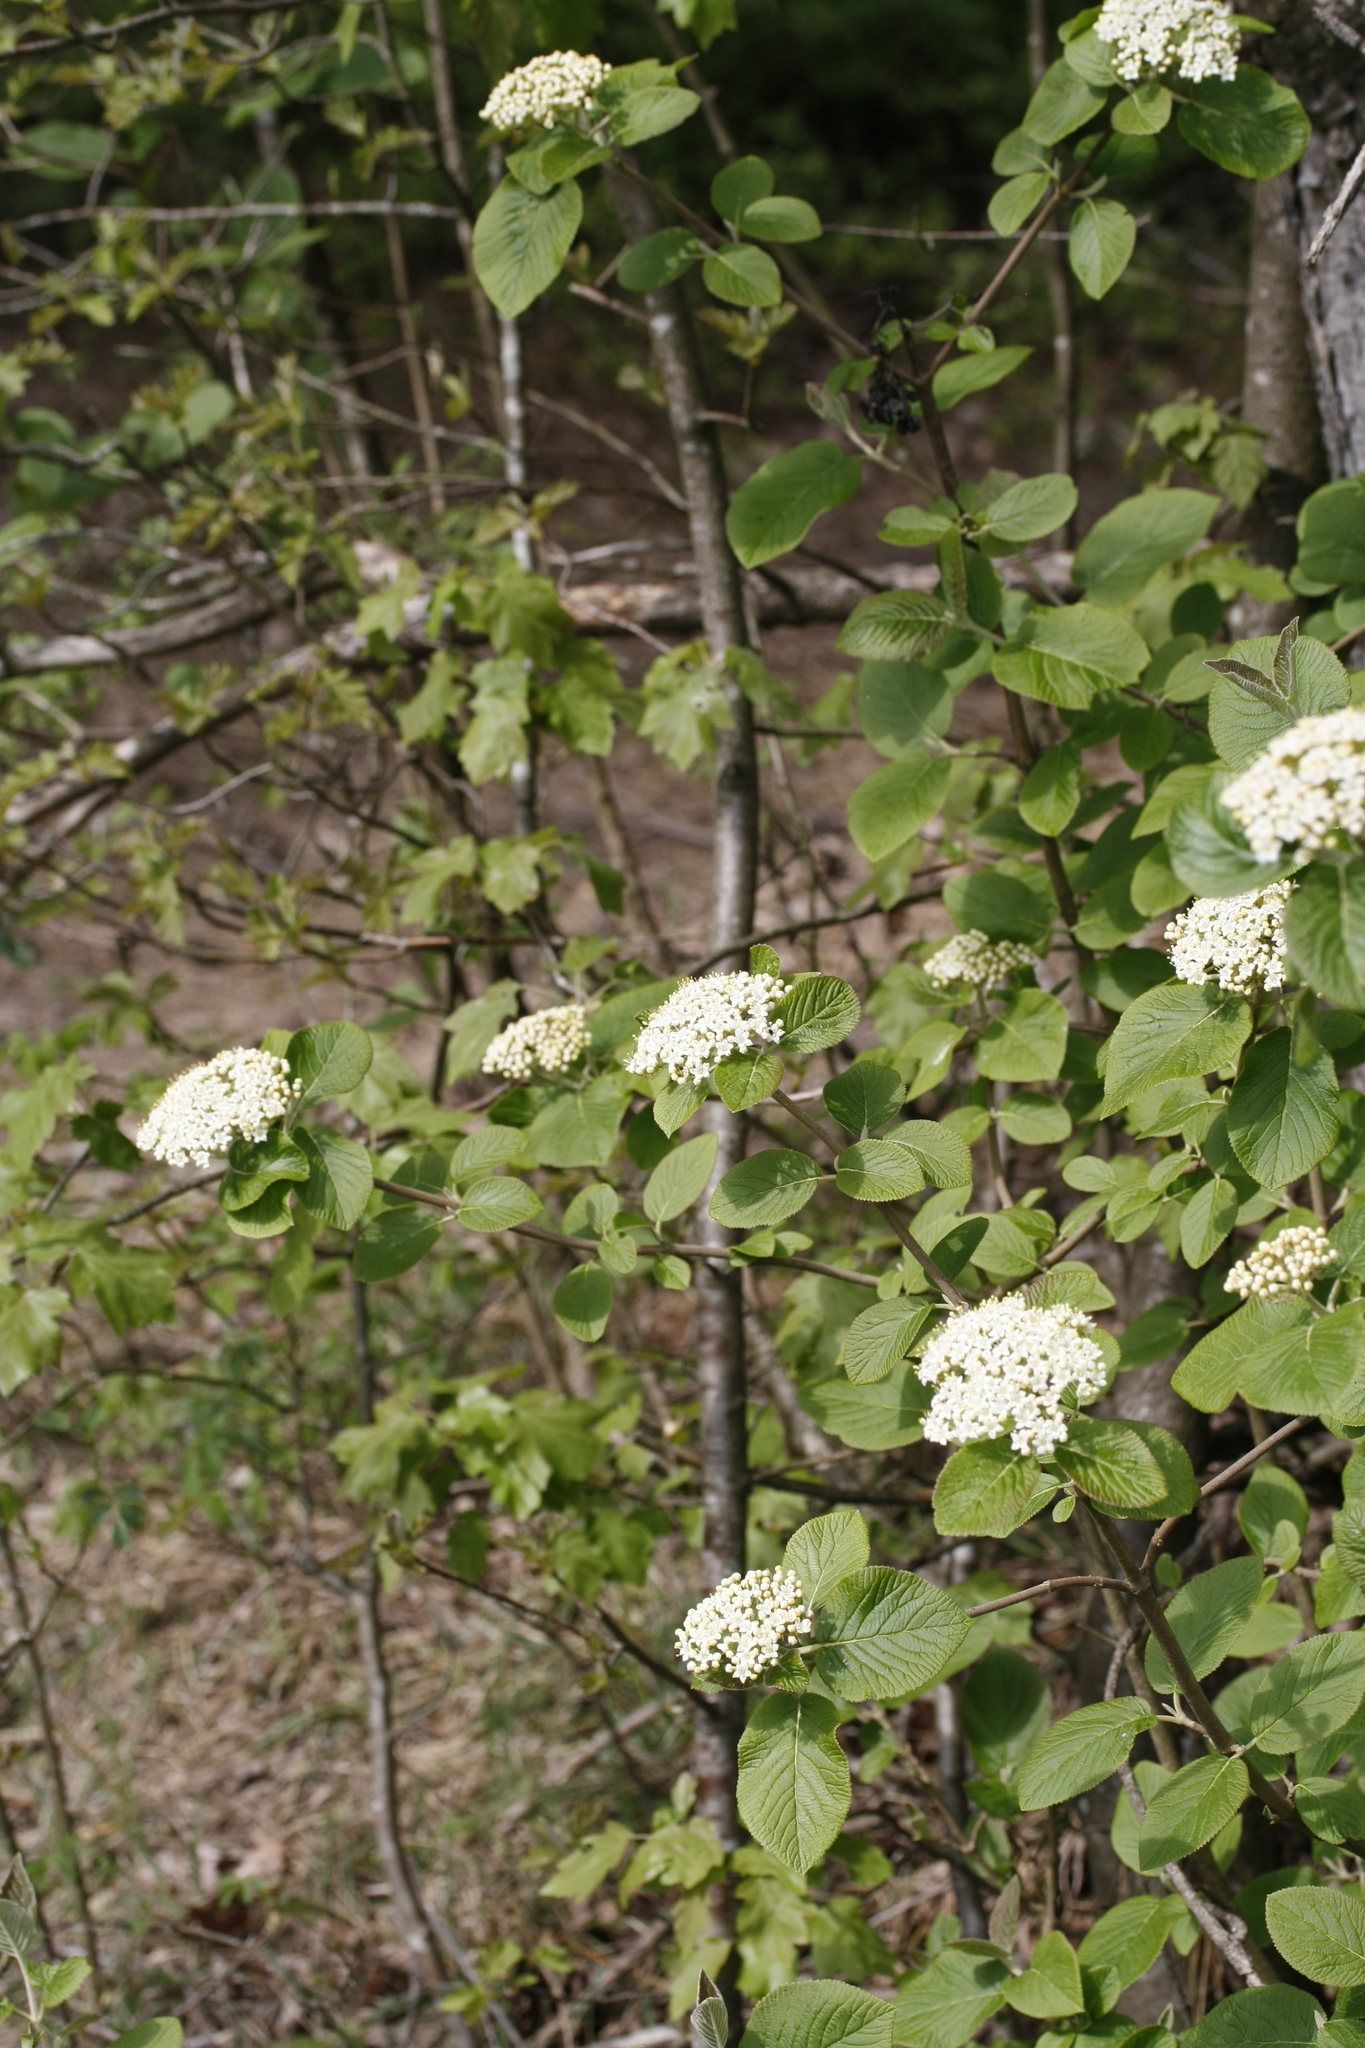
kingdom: Plantae
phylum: Tracheophyta
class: Magnoliopsida
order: Dipsacales
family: Viburnaceae
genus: Viburnum
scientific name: Viburnum lantana
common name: Wayfaring tree
